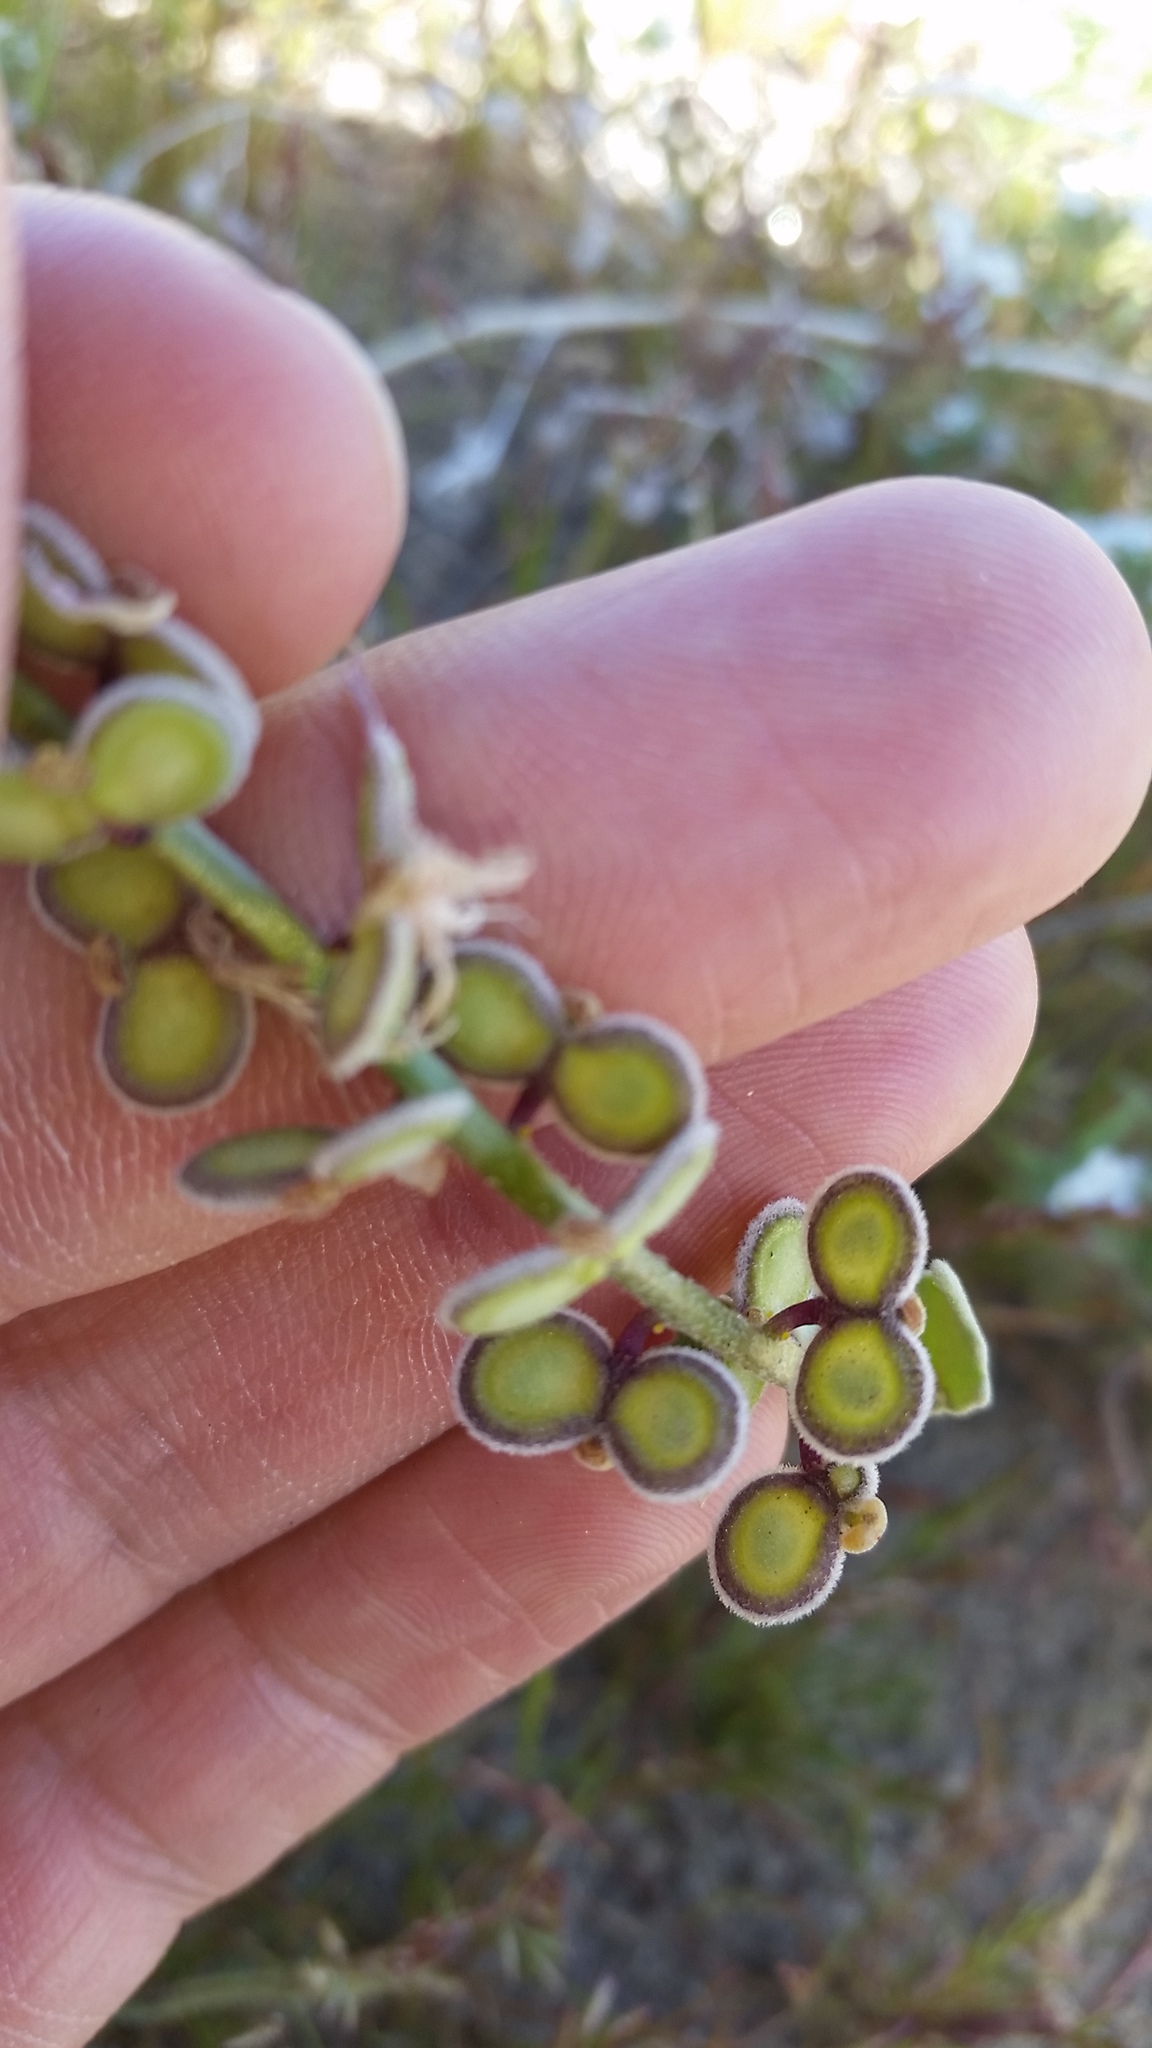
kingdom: Plantae
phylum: Tracheophyta
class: Magnoliopsida
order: Brassicales
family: Brassicaceae
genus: Dithyrea
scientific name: Dithyrea californica
